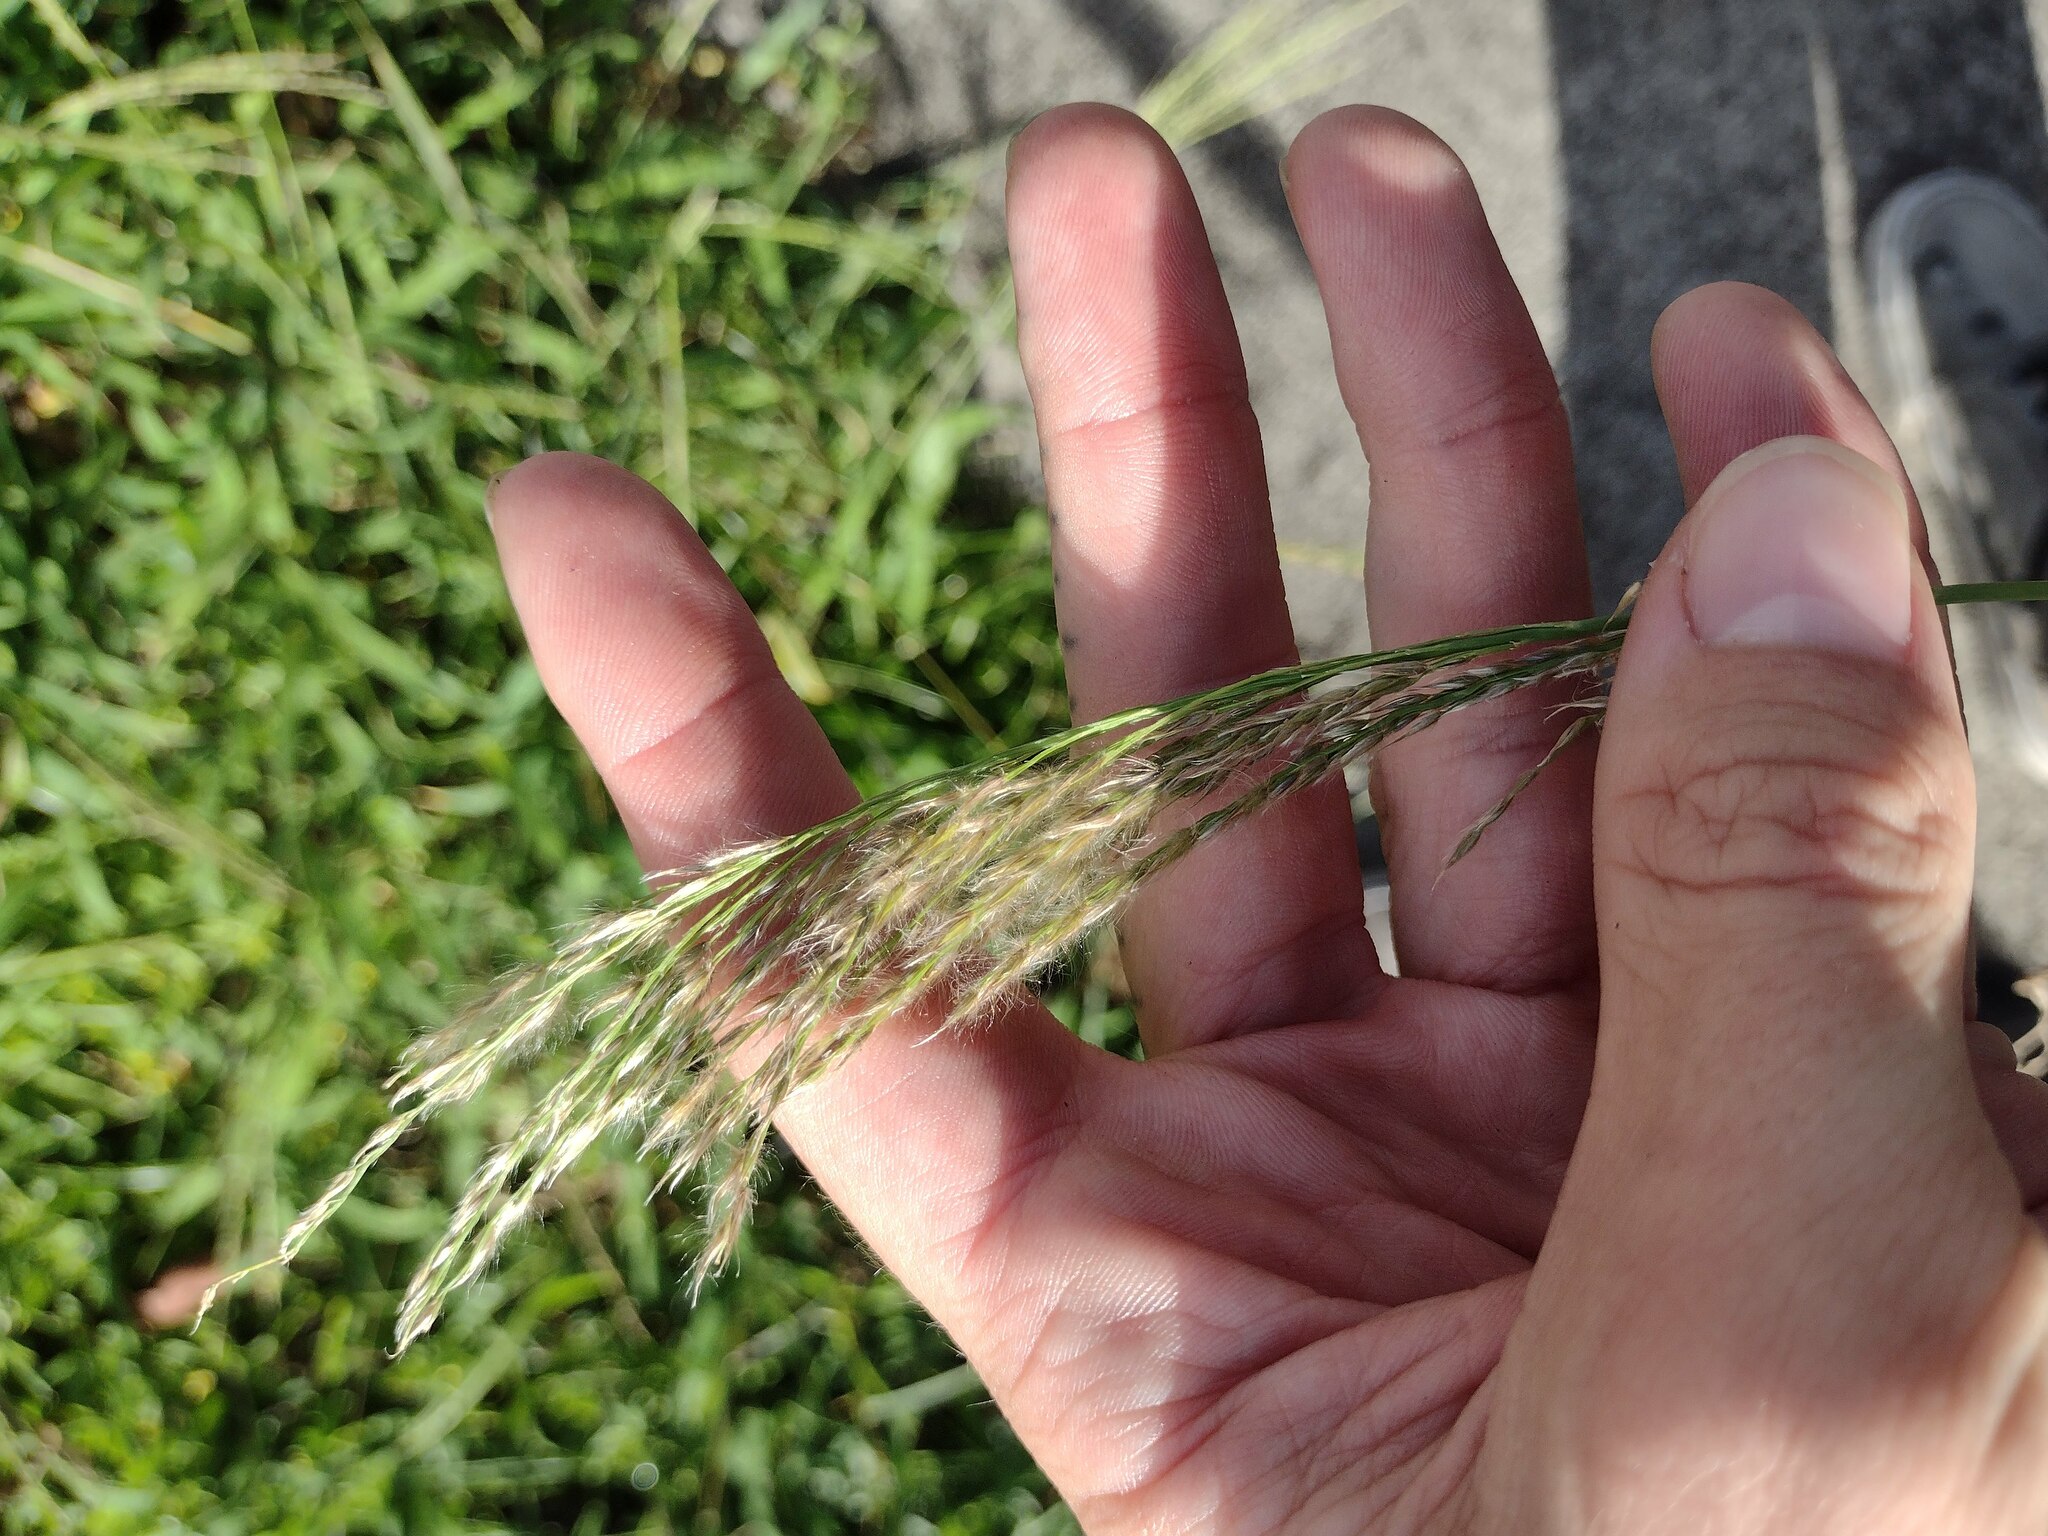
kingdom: Plantae
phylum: Tracheophyta
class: Liliopsida
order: Poales
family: Poaceae
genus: Digitaria
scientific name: Digitaria insularis
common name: Sourgrass
